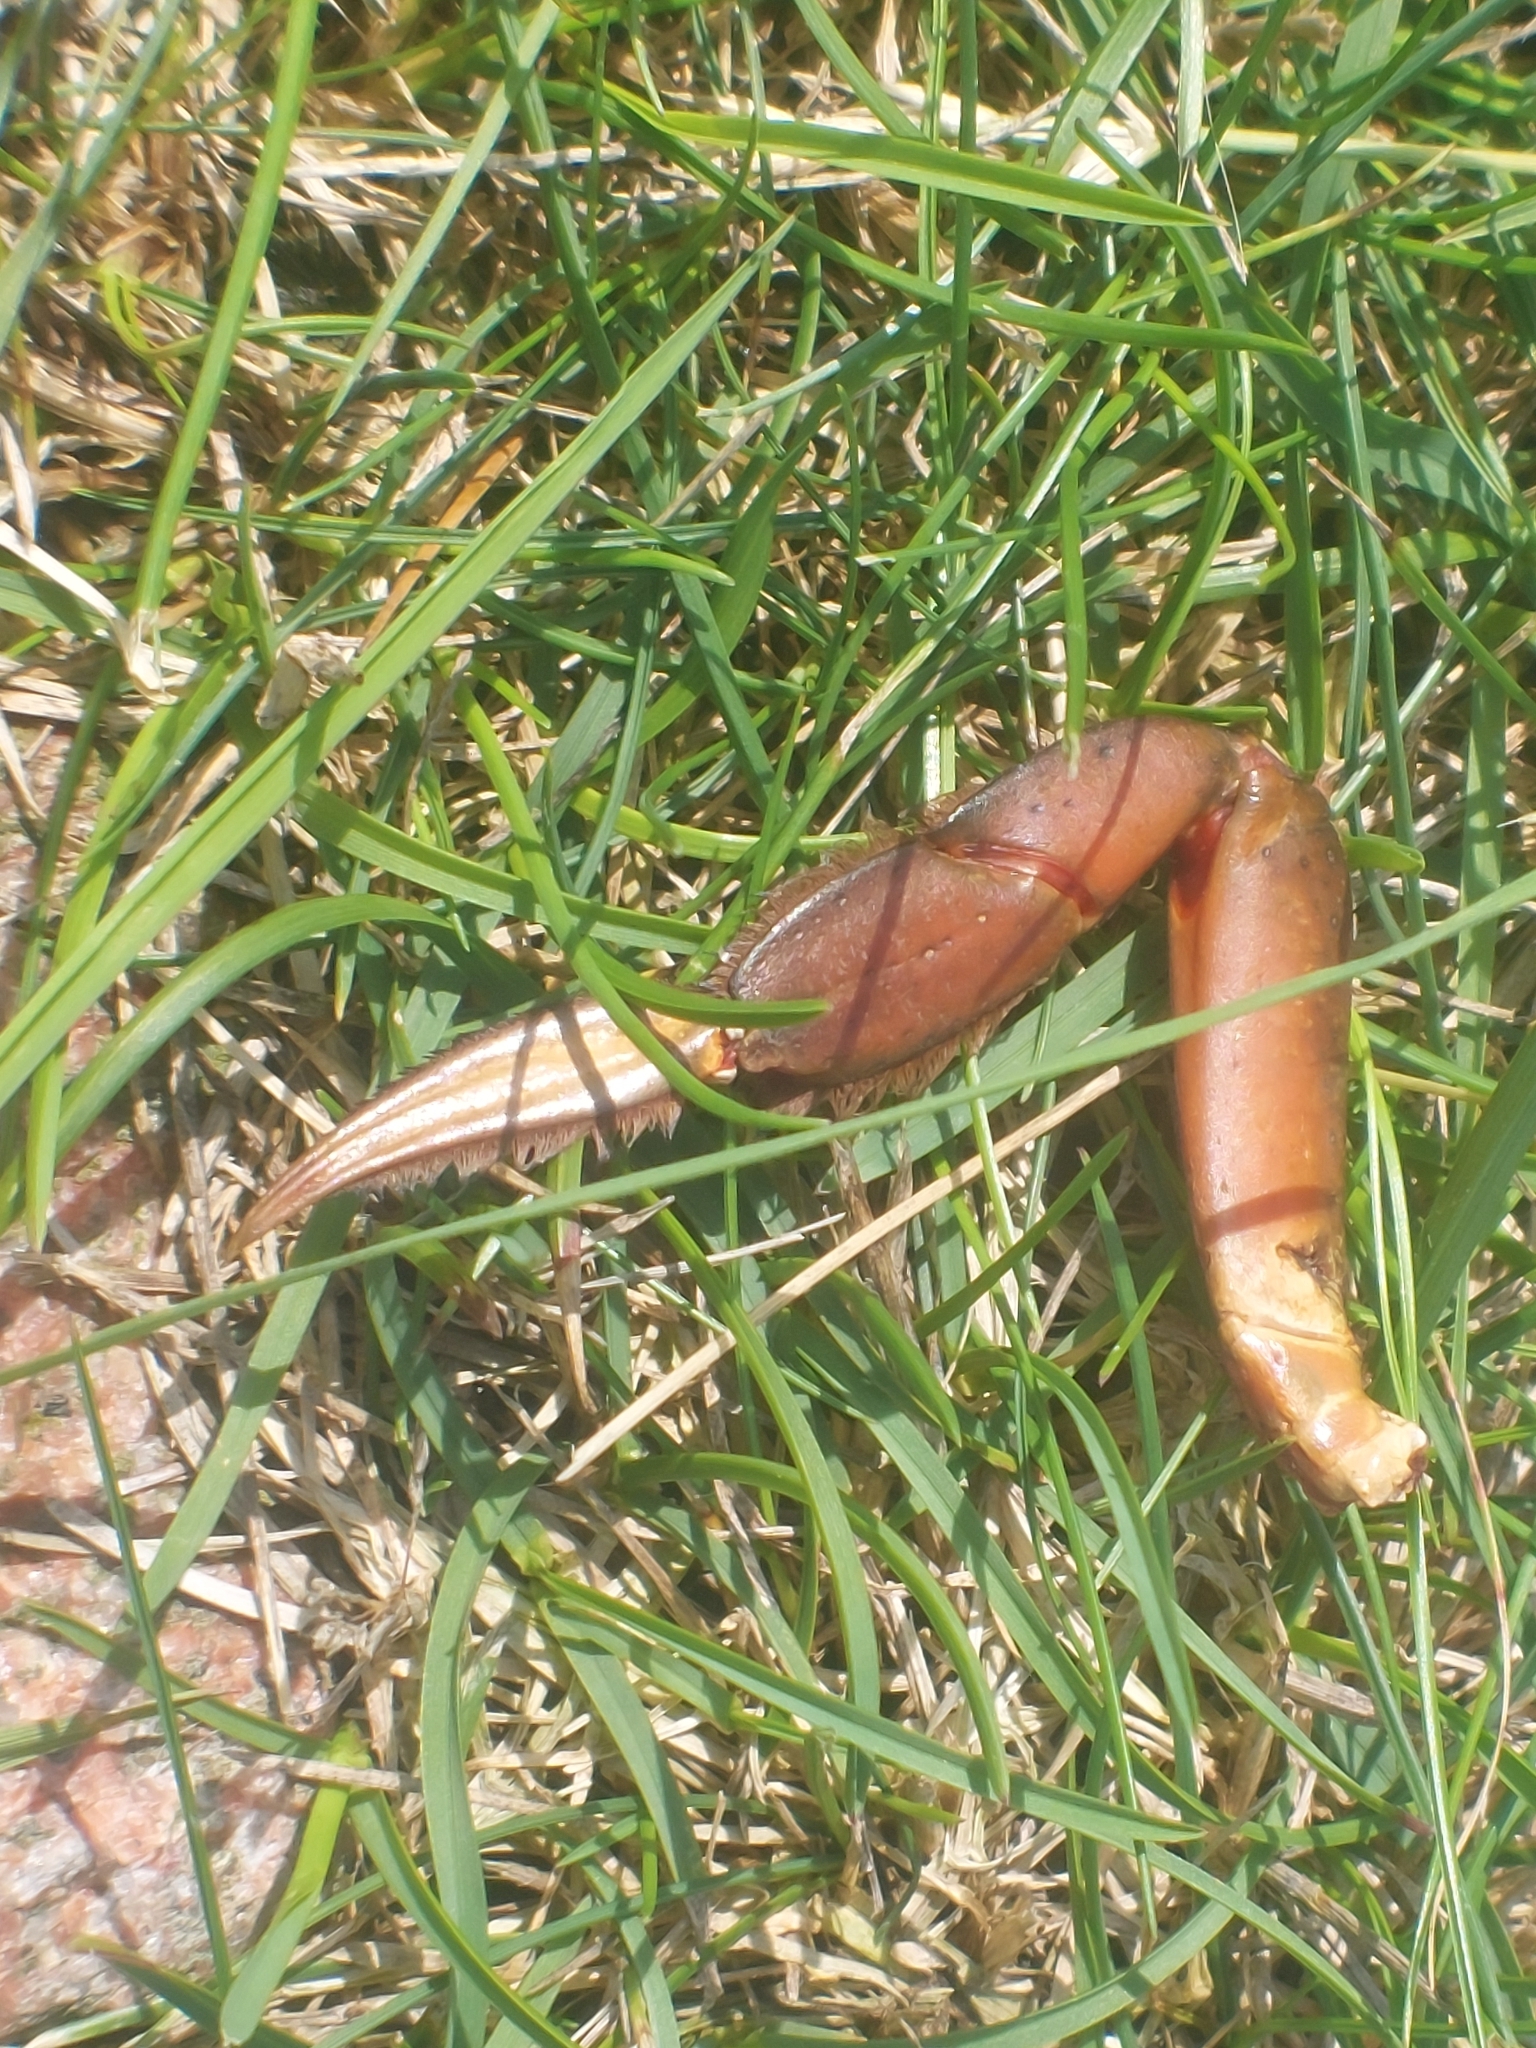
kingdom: Animalia
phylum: Arthropoda
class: Malacostraca
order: Decapoda
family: Carcinidae
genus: Carcinus
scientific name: Carcinus maenas
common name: European green crab
